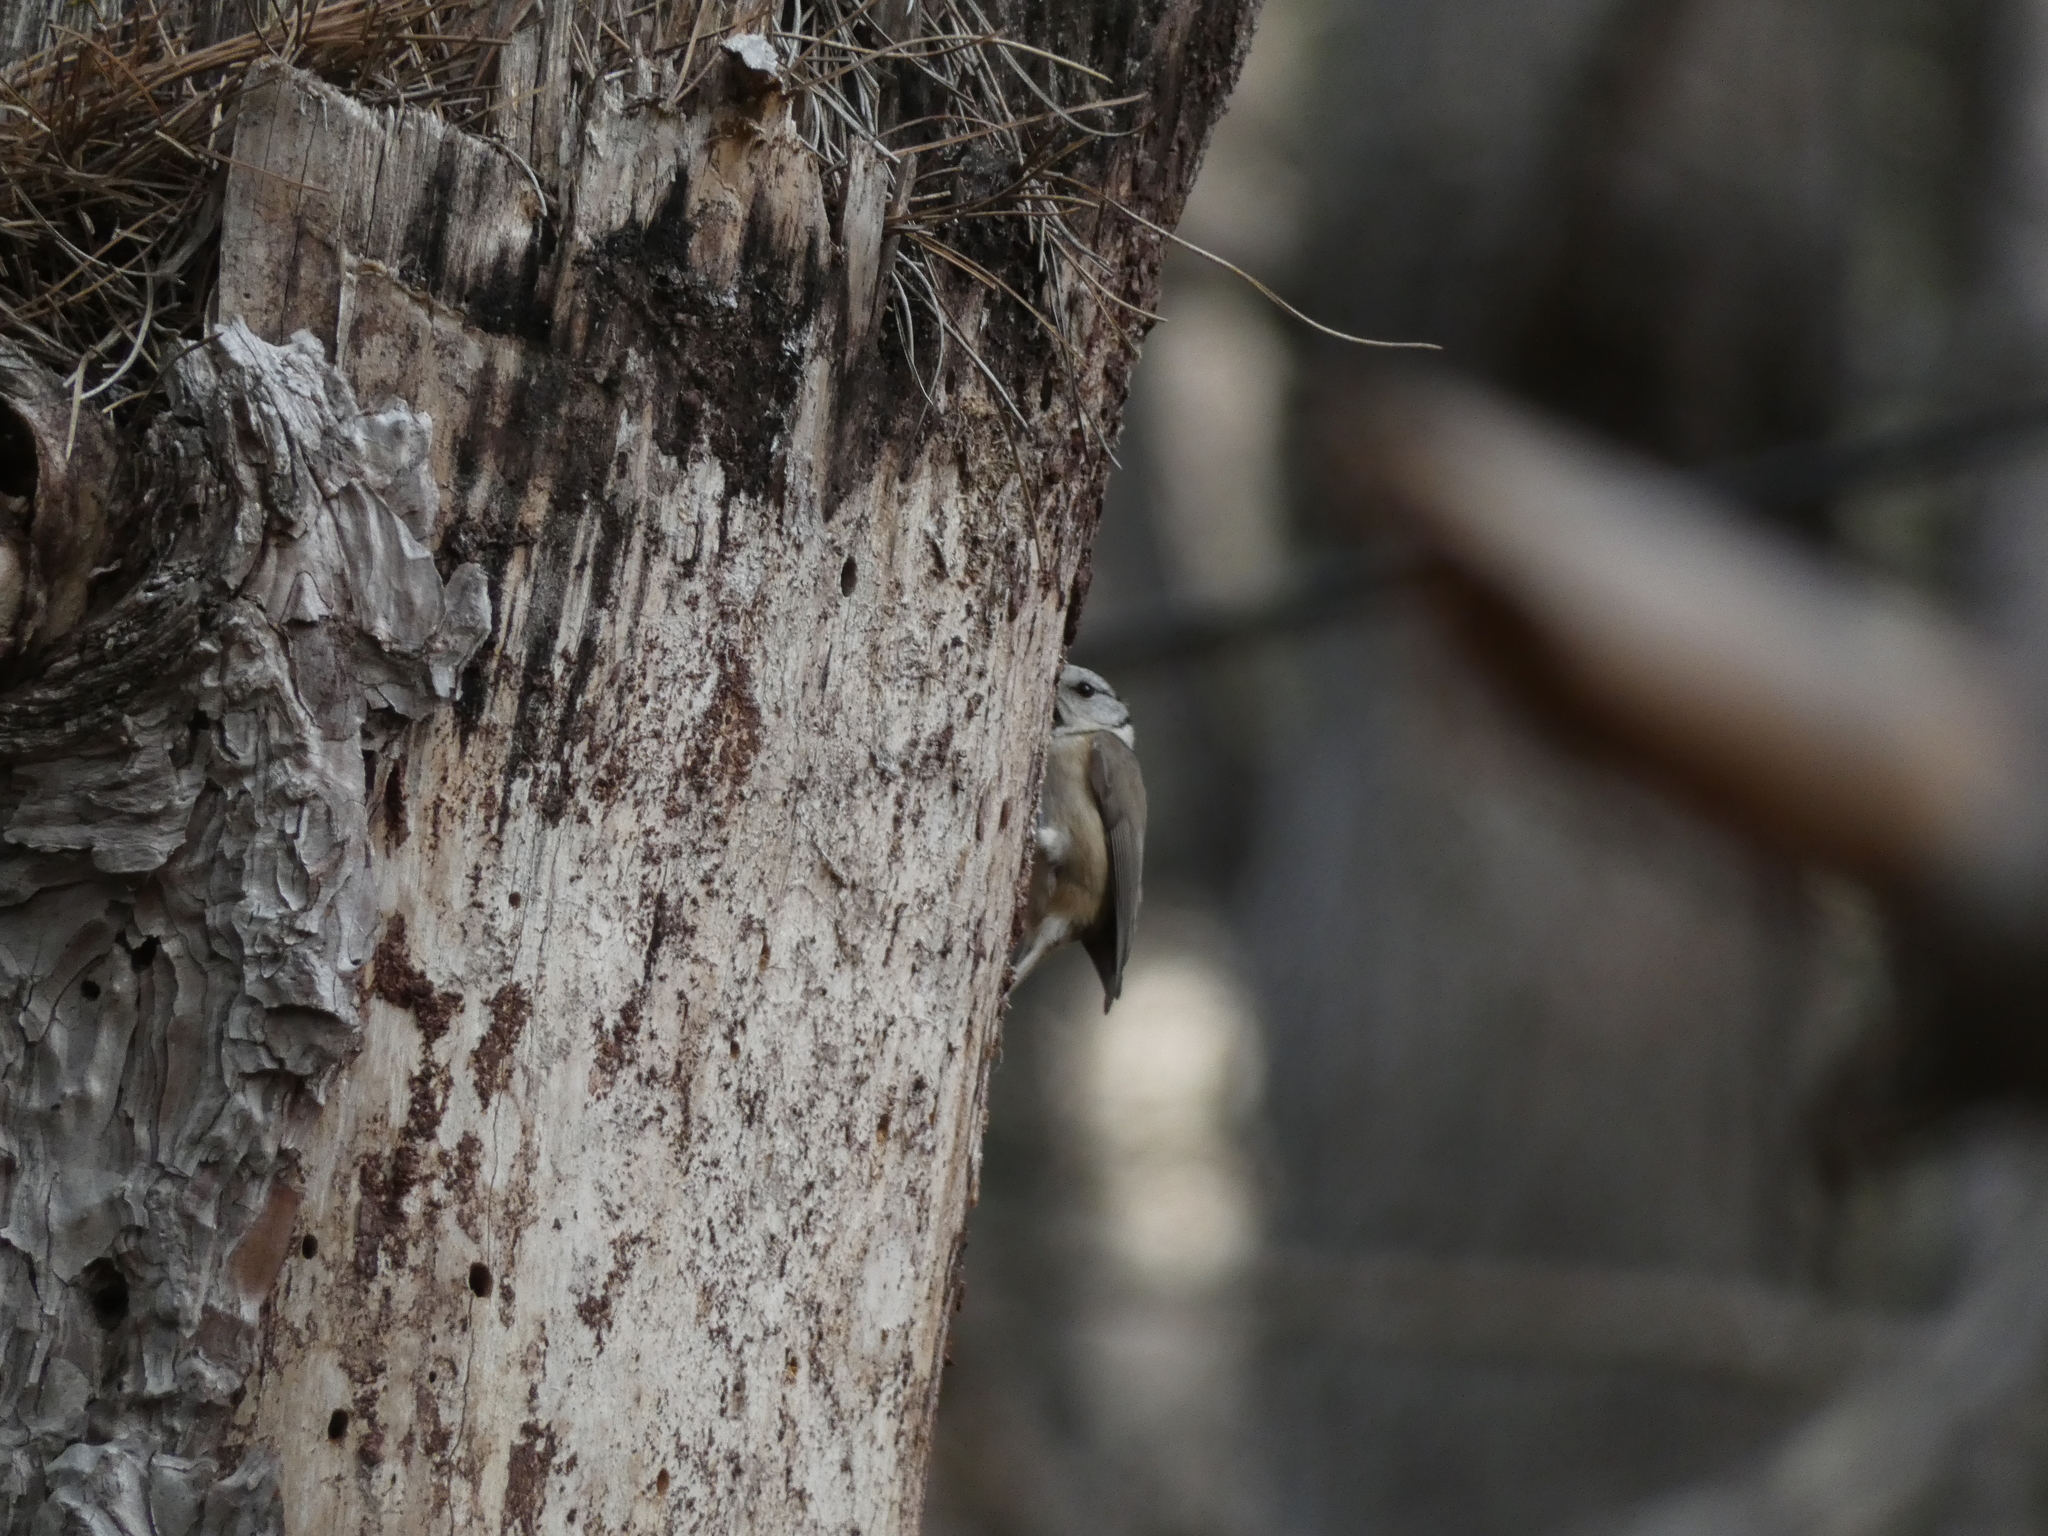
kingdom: Animalia
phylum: Chordata
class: Aves
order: Passeriformes
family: Paridae
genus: Lophophanes
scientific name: Lophophanes cristatus
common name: European crested tit
